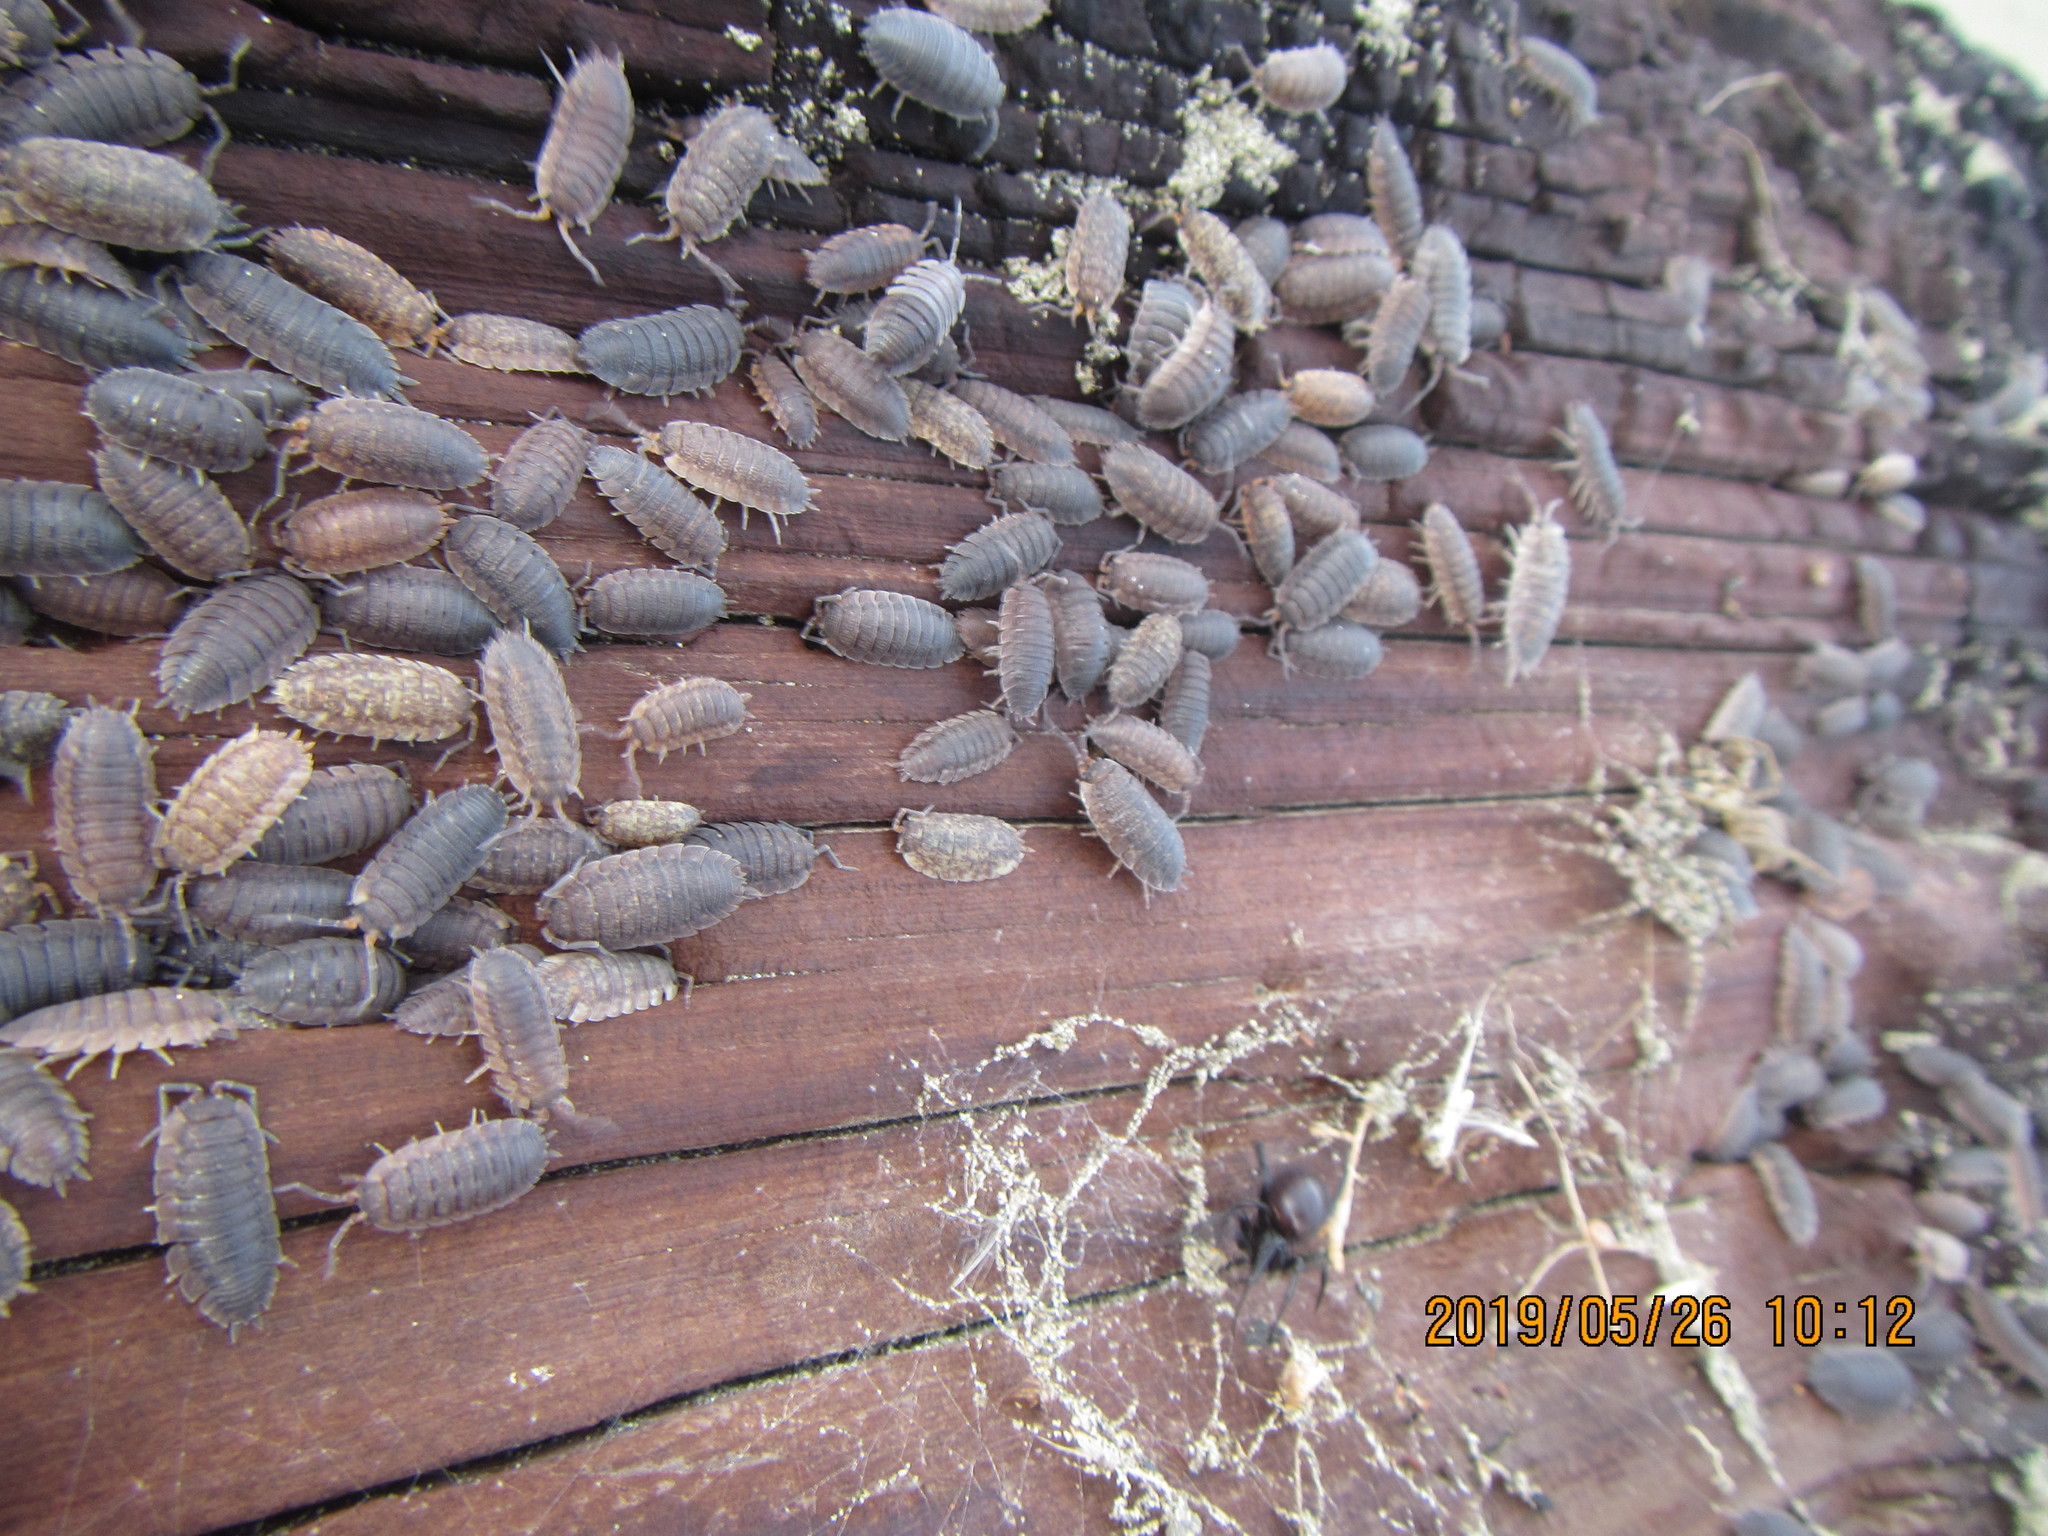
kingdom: Animalia
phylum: Arthropoda
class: Arachnida
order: Araneae
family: Theridiidae
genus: Steatoda
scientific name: Steatoda capensis
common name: Cobweb weaver
